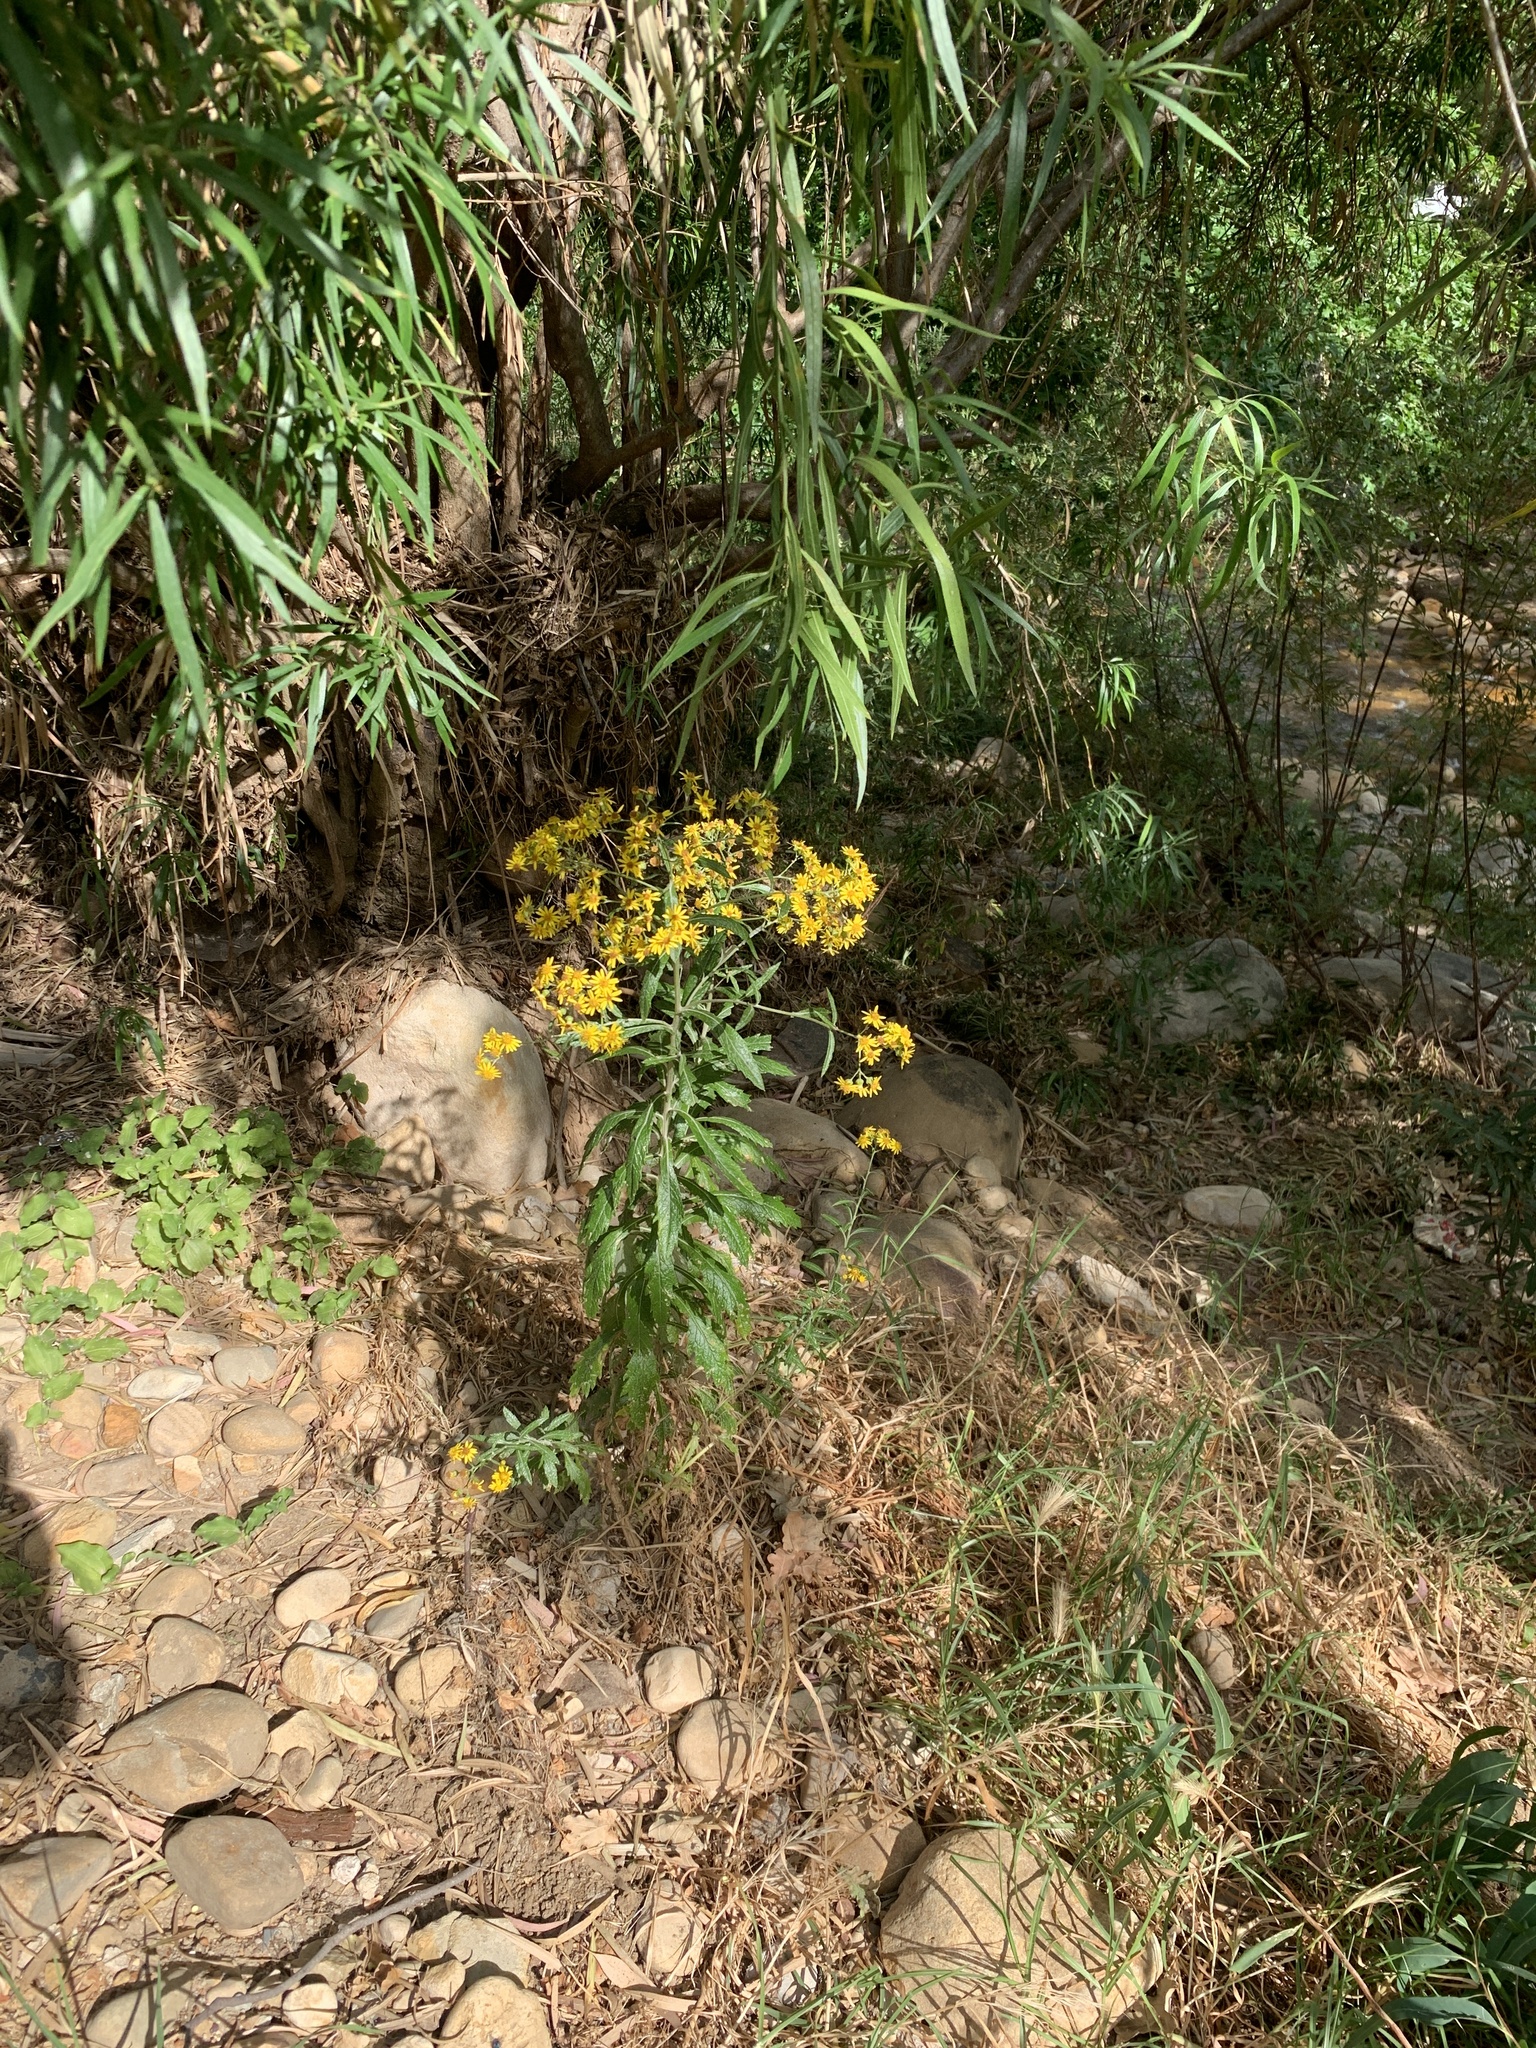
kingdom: Plantae
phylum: Tracheophyta
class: Magnoliopsida
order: Asterales
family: Asteraceae
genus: Senecio
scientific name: Senecio pterophorus
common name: Shoddy ragwort
